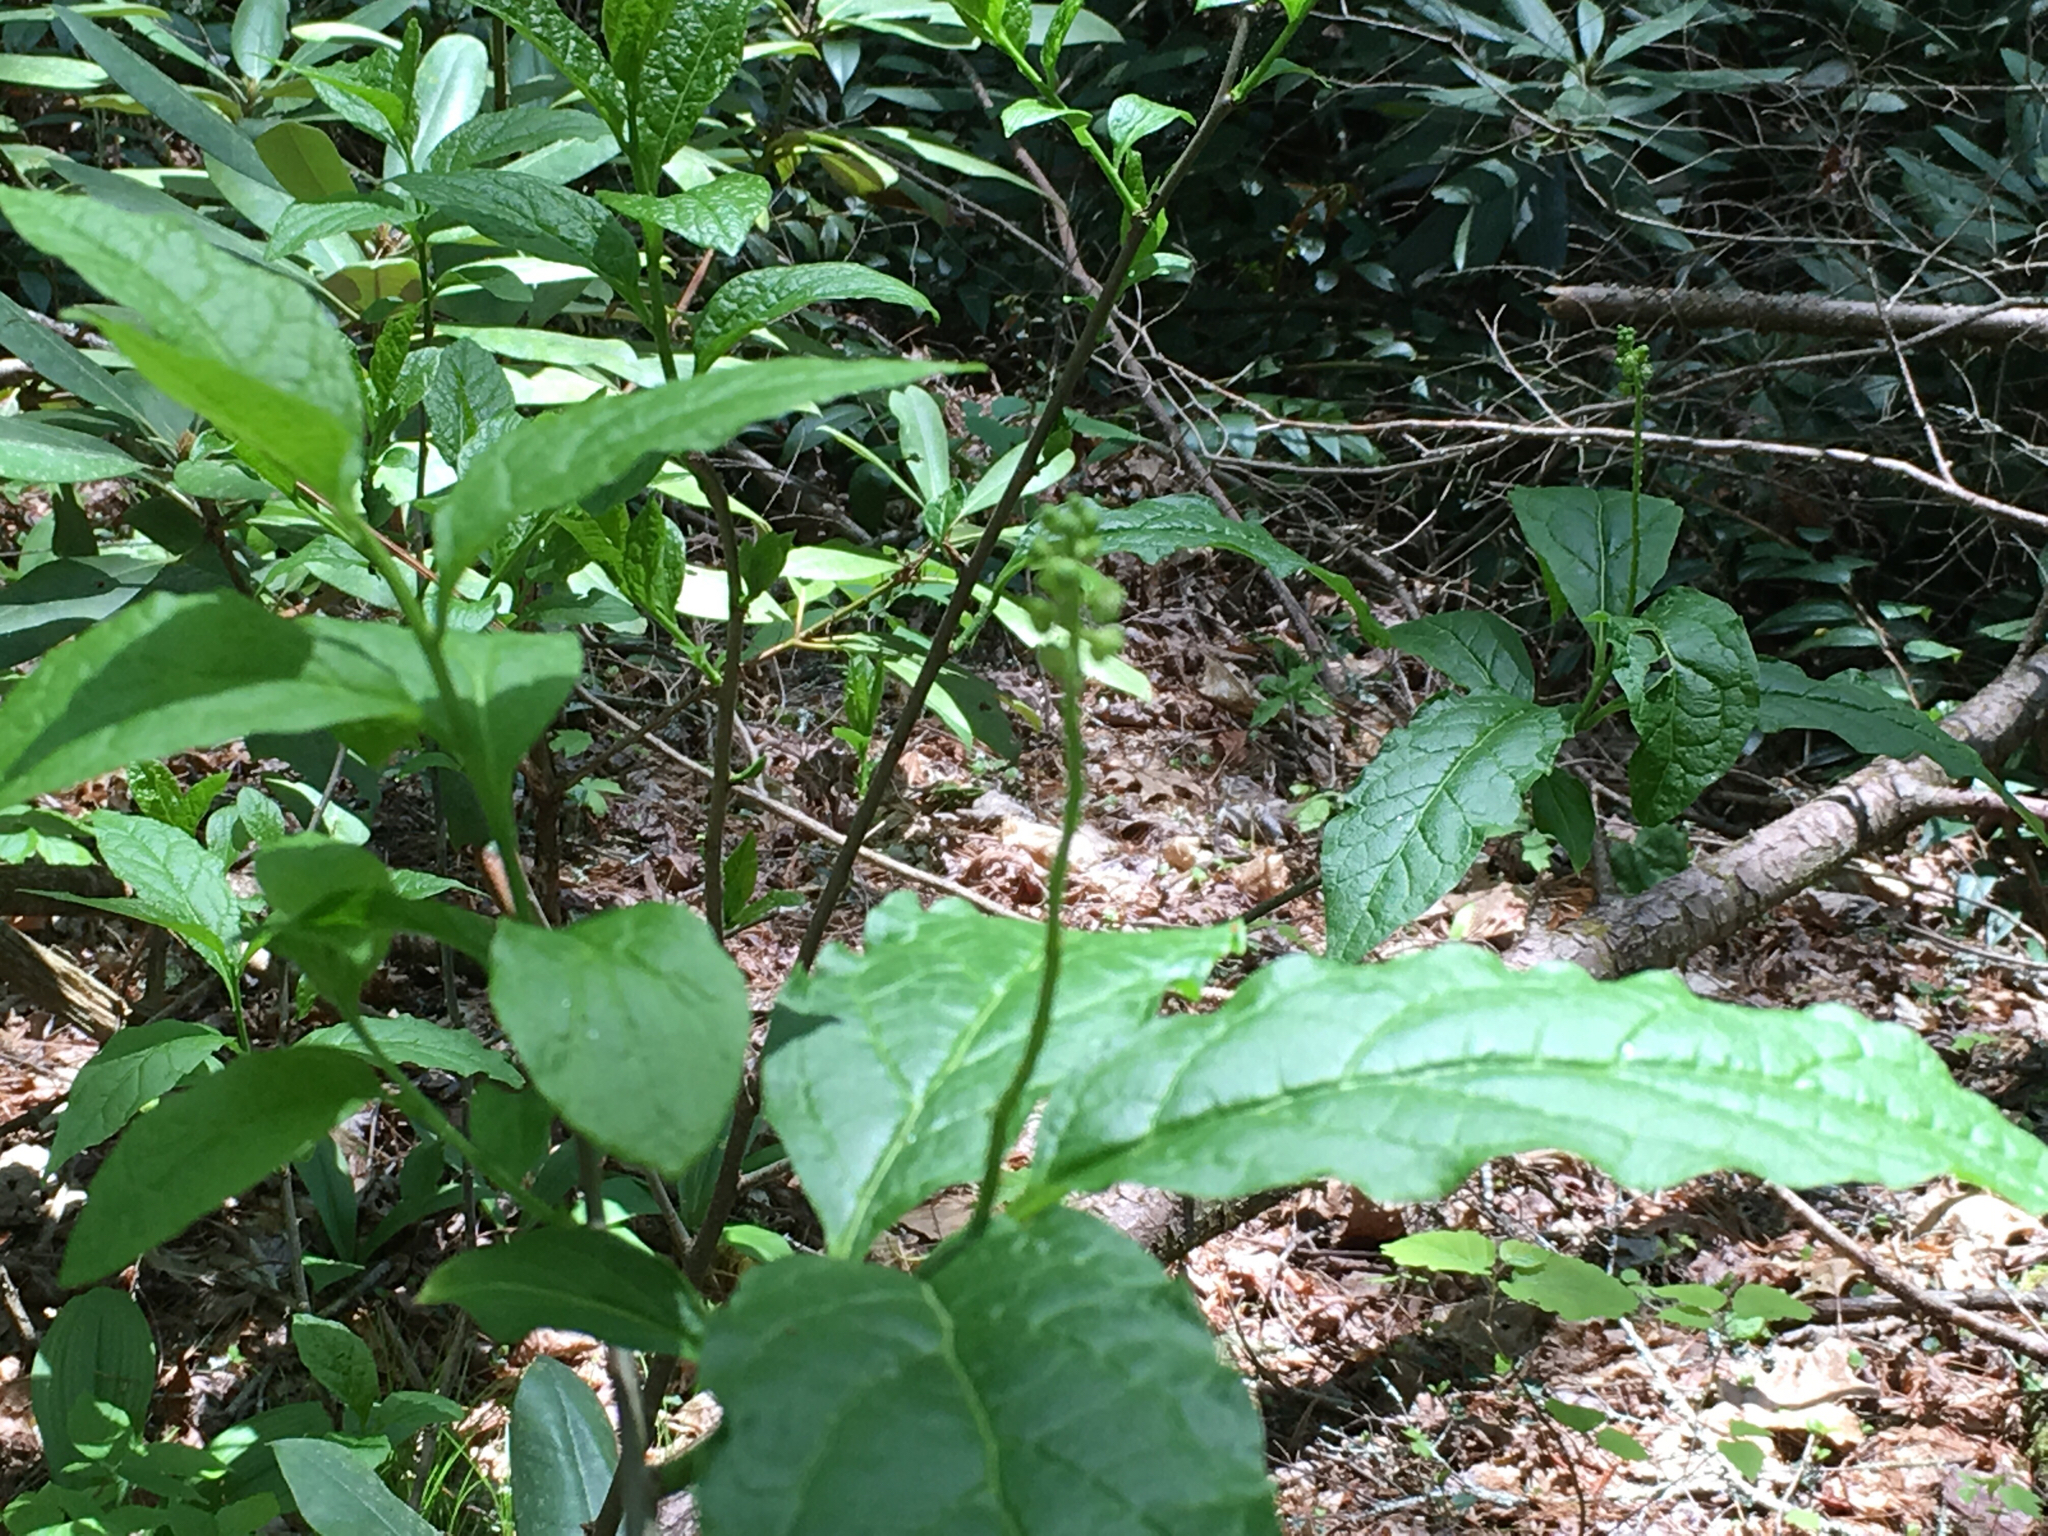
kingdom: Plantae
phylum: Tracheophyta
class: Magnoliopsida
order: Santalales
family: Cervantesiaceae
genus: Pyrularia
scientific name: Pyrularia pubera
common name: Oilnut
